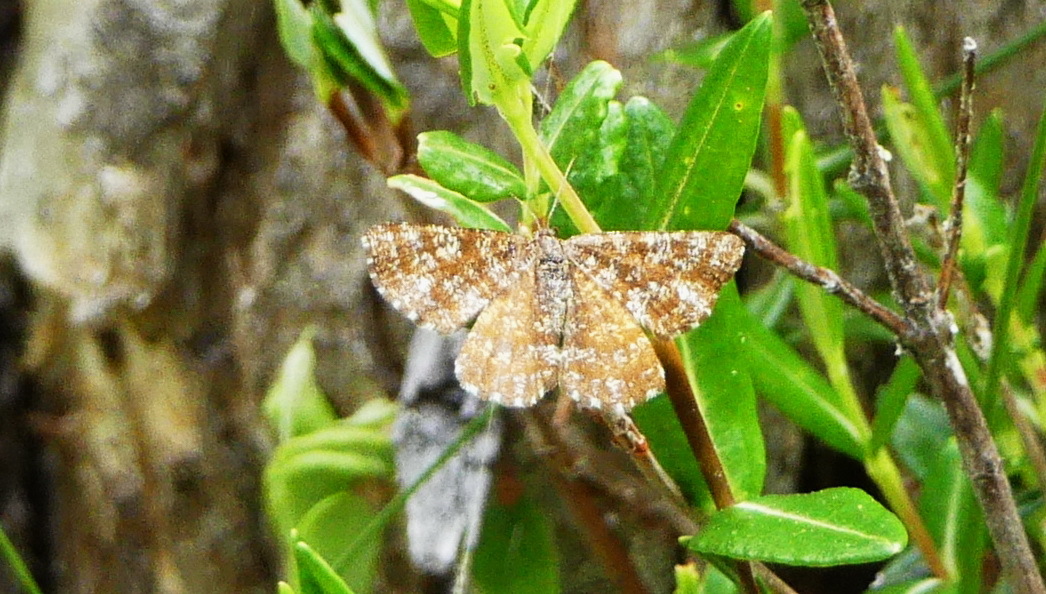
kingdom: Animalia
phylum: Arthropoda
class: Insecta
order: Lepidoptera
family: Geometridae
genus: Ematurga
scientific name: Ematurga amitaria
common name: Cranberry spanworm moth
